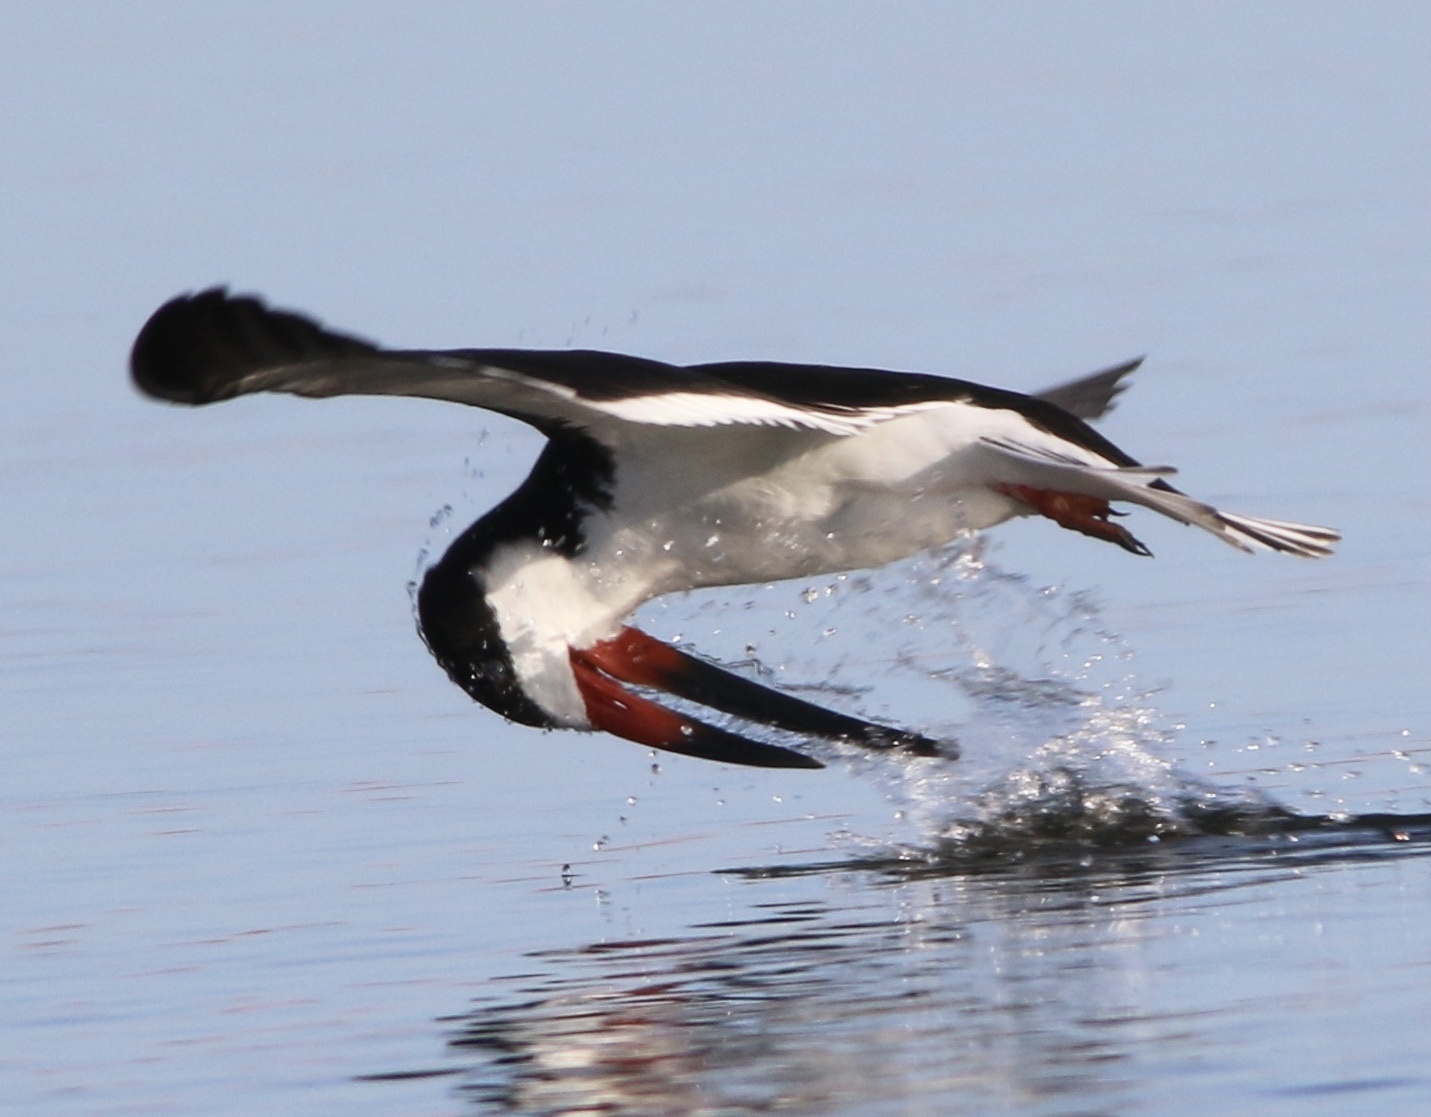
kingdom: Animalia
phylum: Chordata
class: Aves
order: Charadriiformes
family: Laridae
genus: Rynchops
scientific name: Rynchops niger
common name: Black skimmer
